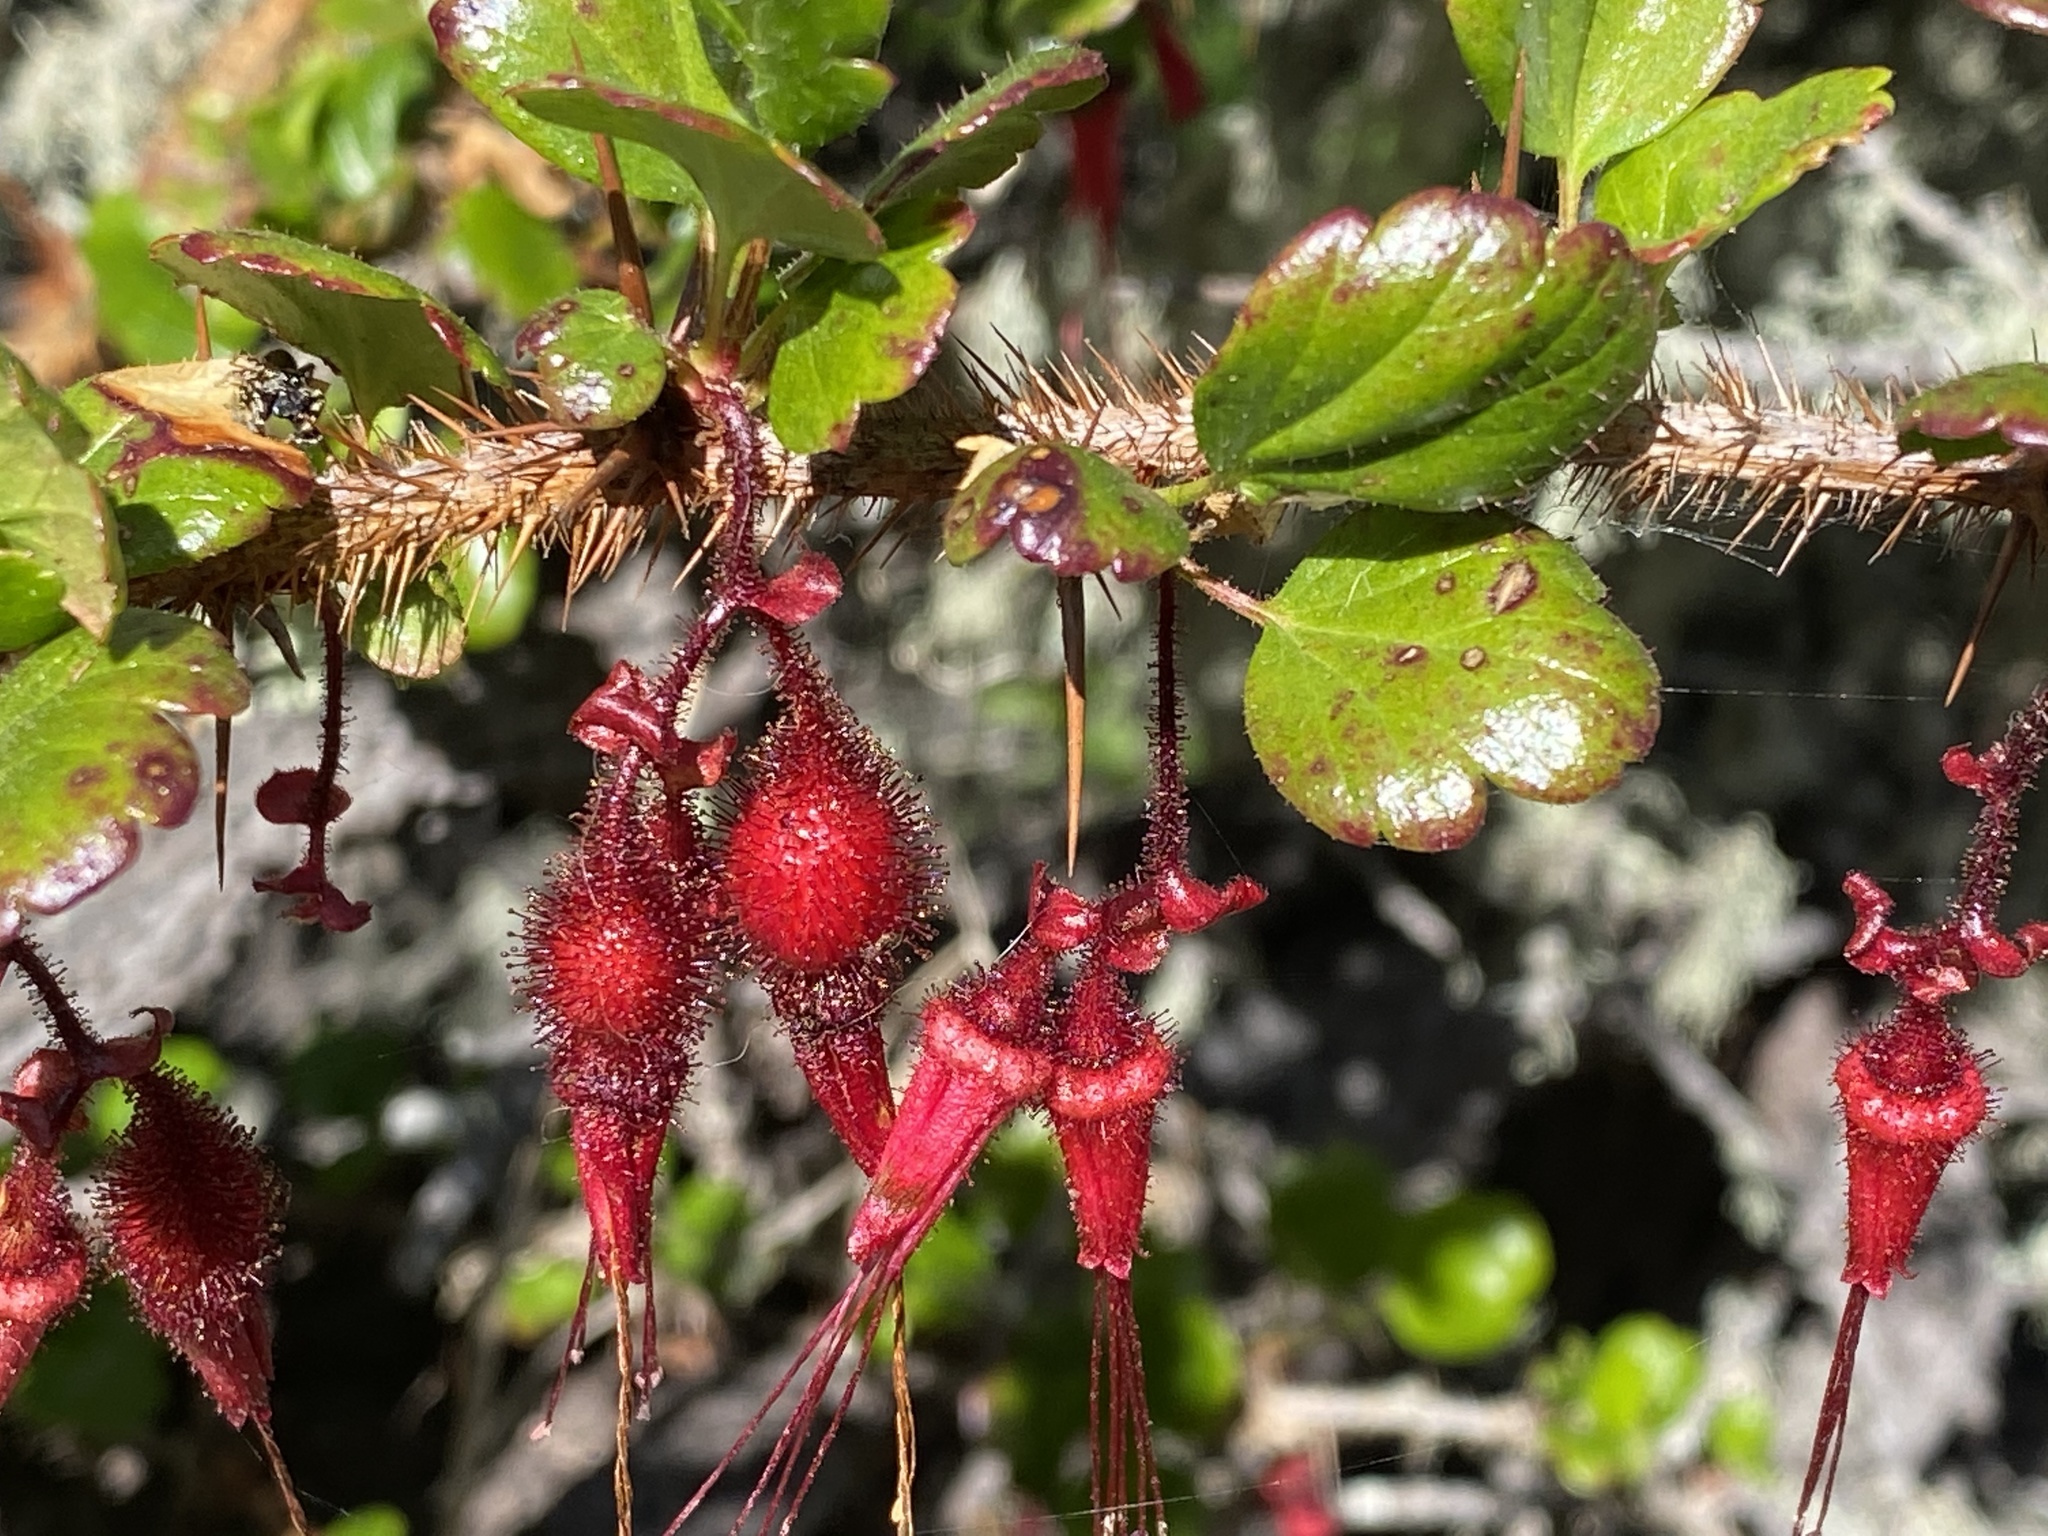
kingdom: Plantae
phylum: Tracheophyta
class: Magnoliopsida
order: Saxifragales
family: Grossulariaceae
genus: Ribes
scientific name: Ribes speciosum
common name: Fuchsia-flower gooseberry
